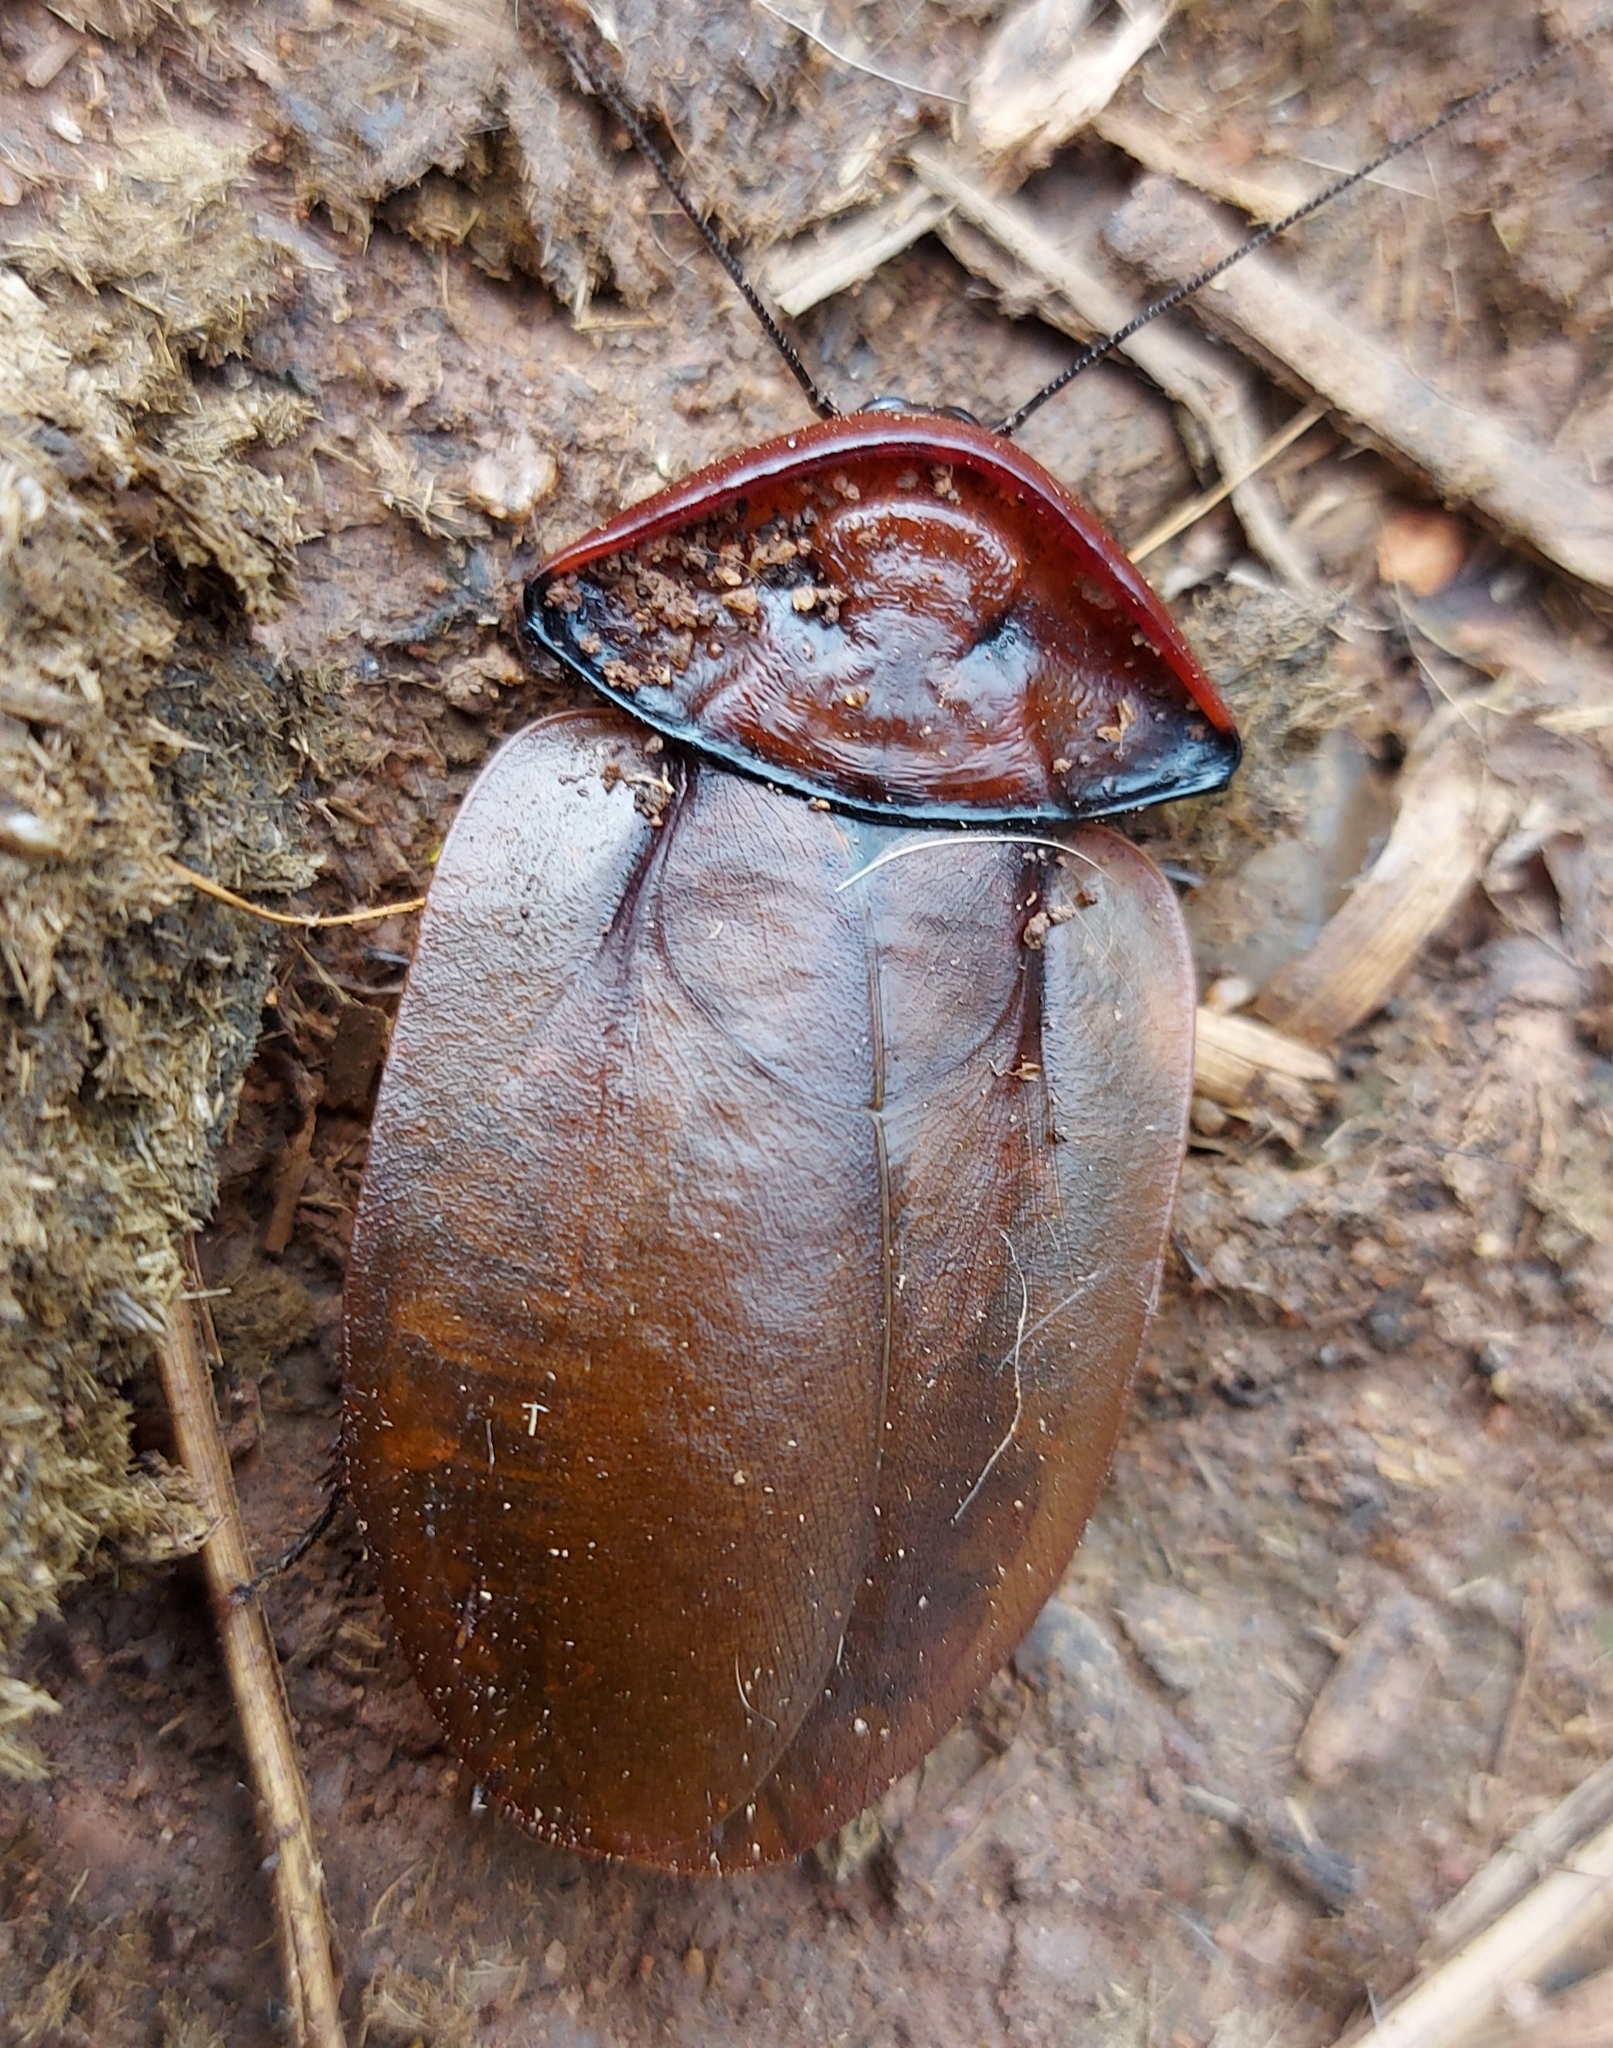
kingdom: Animalia
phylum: Arthropoda
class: Insecta
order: Blattodea
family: Blaberidae
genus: Petasodes
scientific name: Petasodes dominicana
